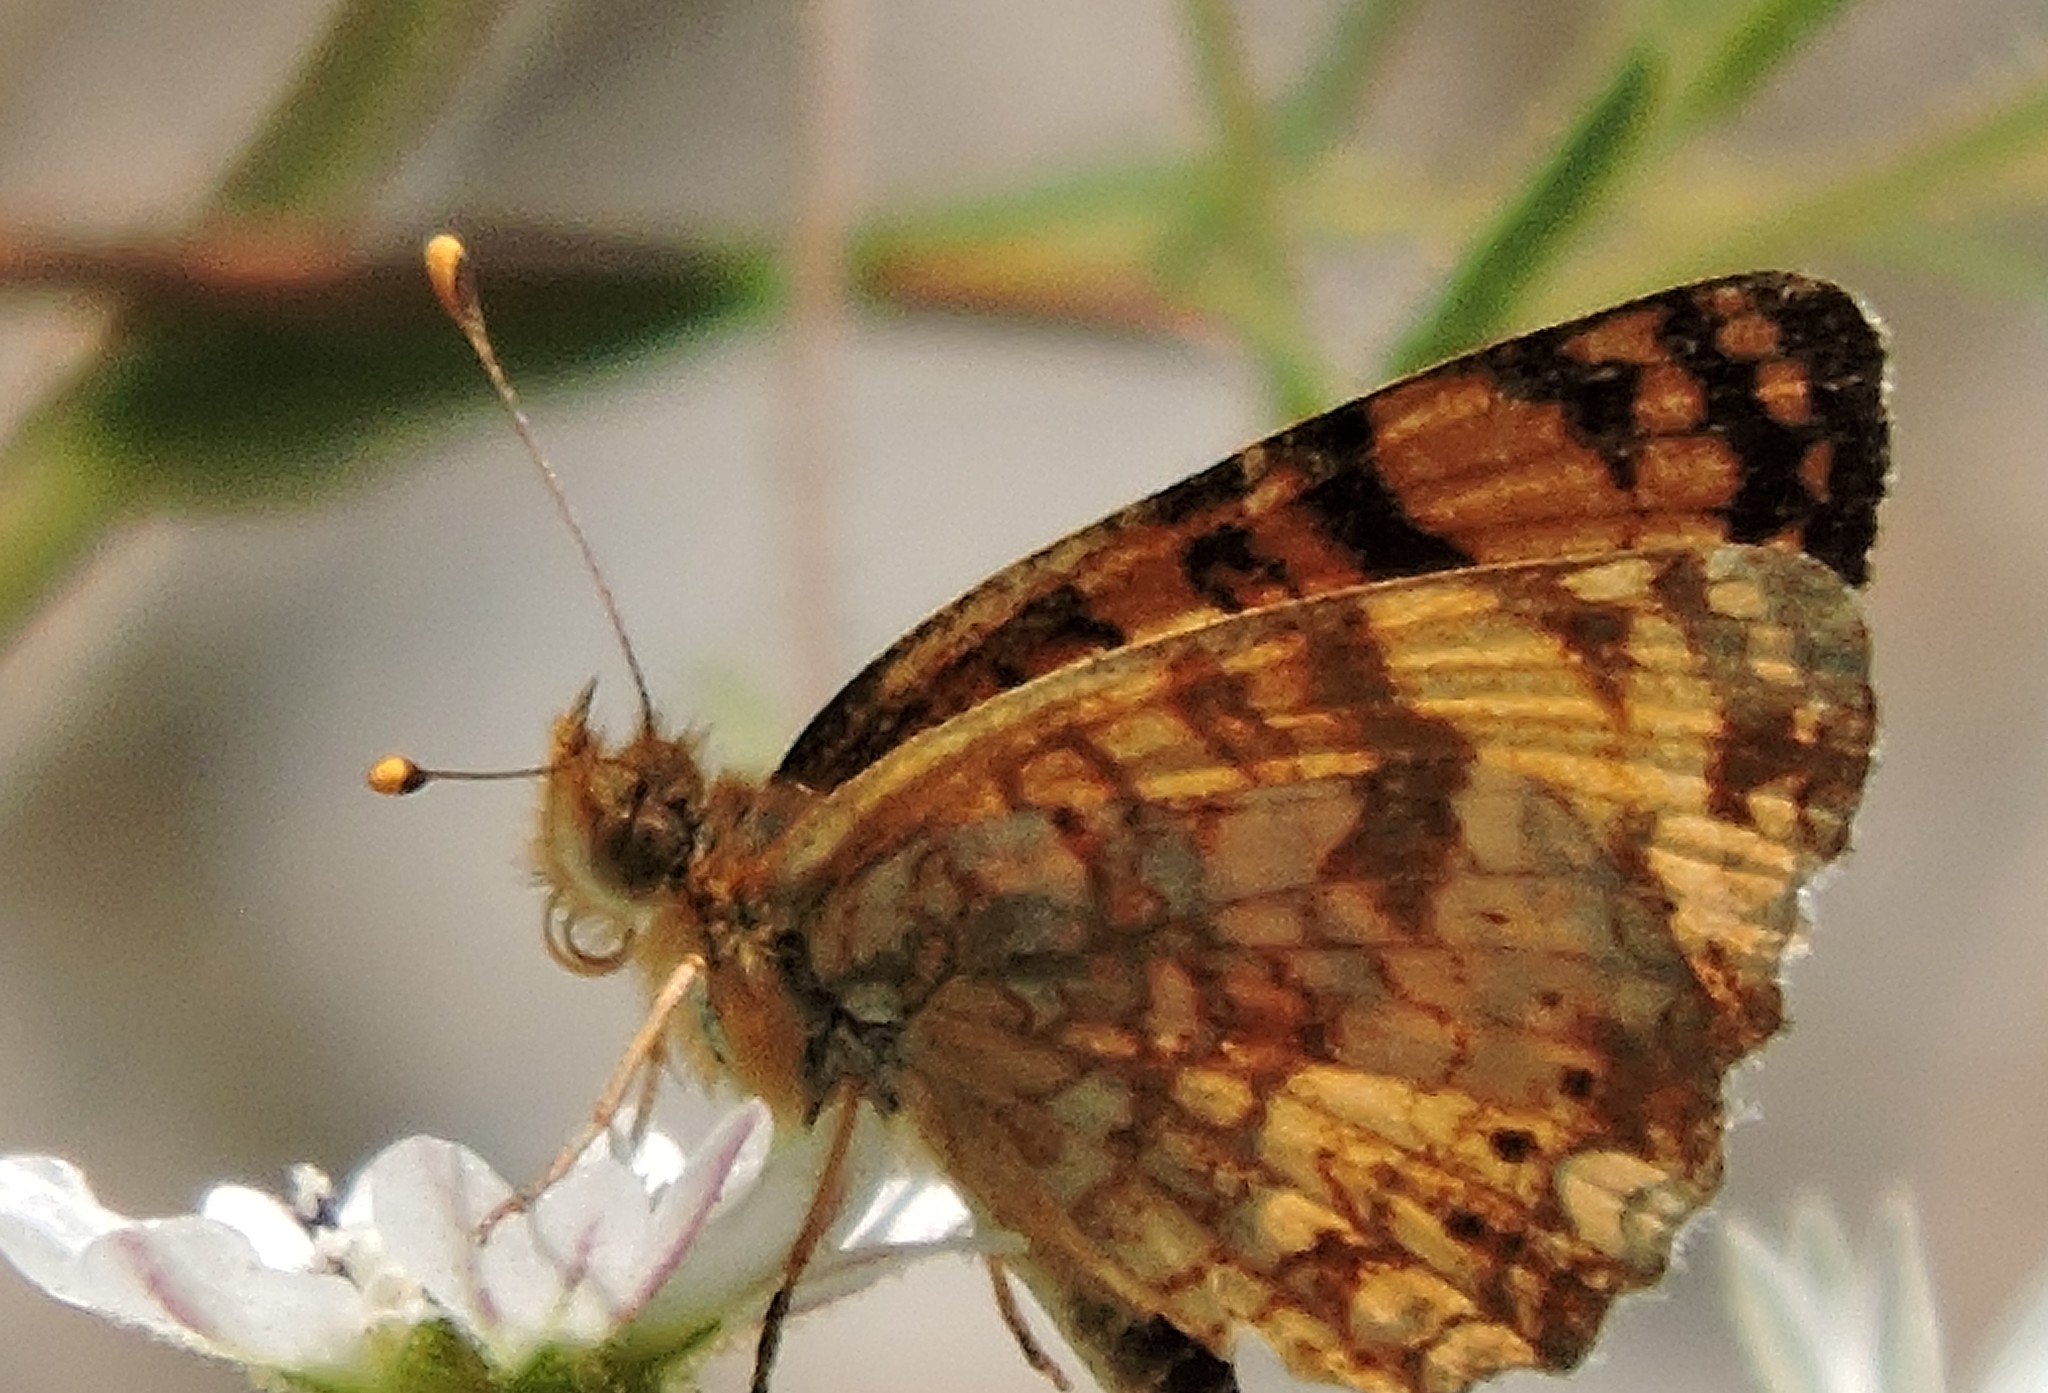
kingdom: Animalia
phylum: Arthropoda
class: Insecta
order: Lepidoptera
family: Nymphalidae
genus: Eresia
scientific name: Eresia aveyrona
